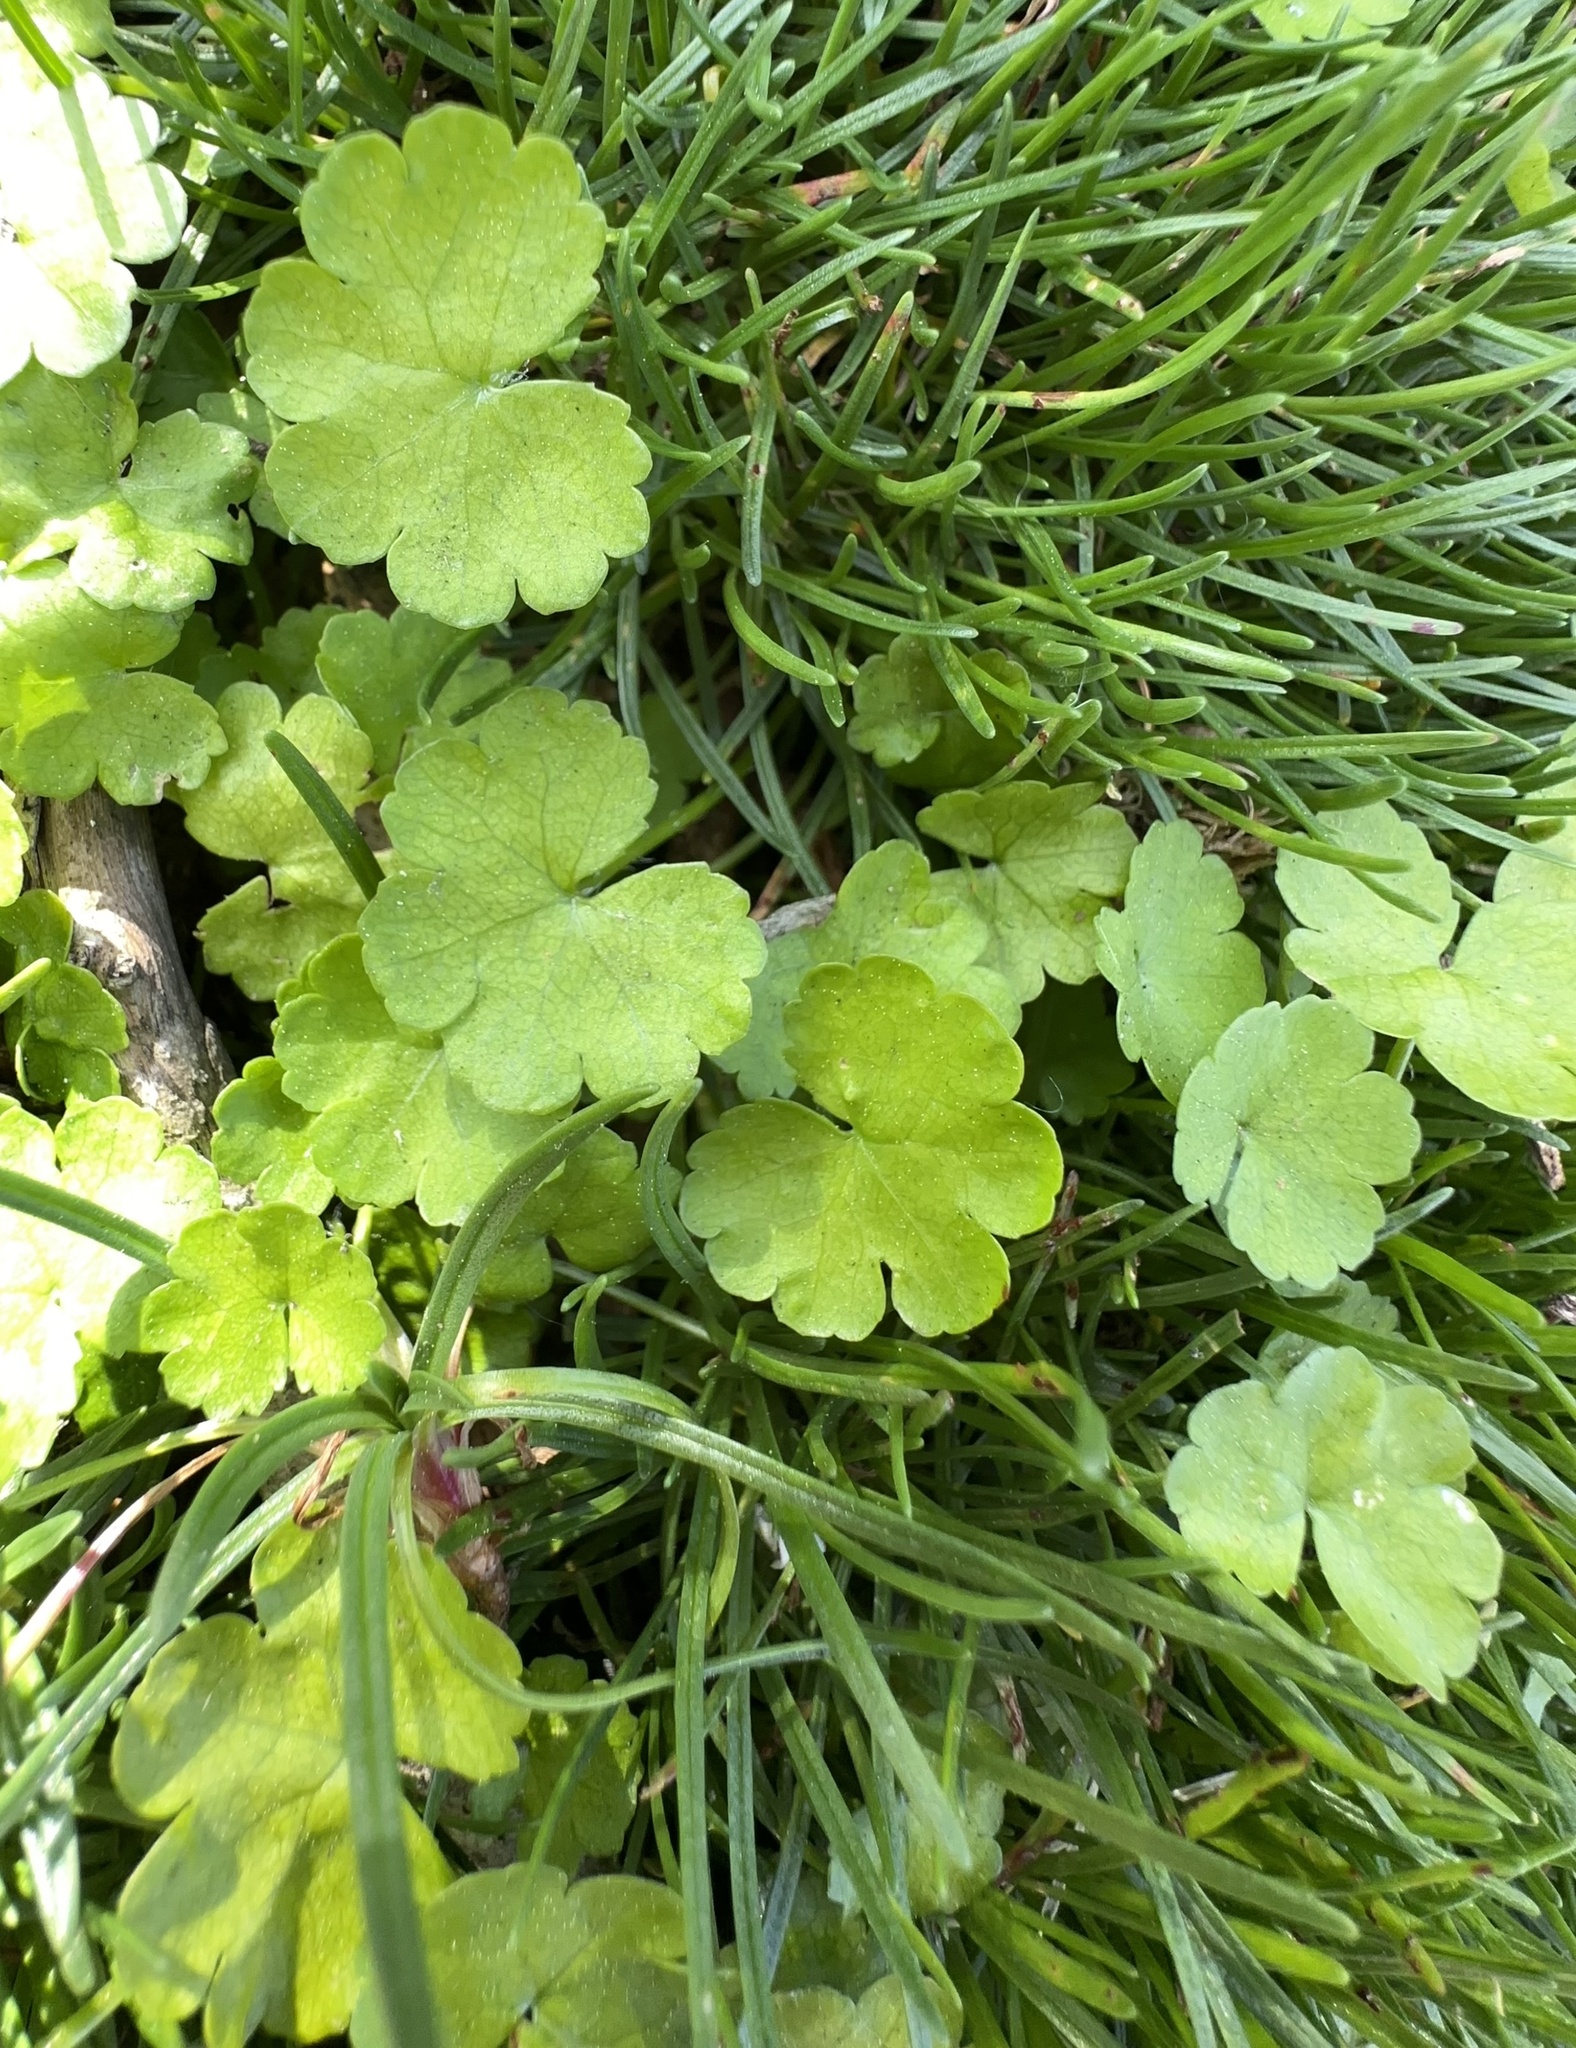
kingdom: Plantae
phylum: Tracheophyta
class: Magnoliopsida
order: Apiales
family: Araliaceae
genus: Hydrocotyle
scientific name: Hydrocotyle heteromeria
